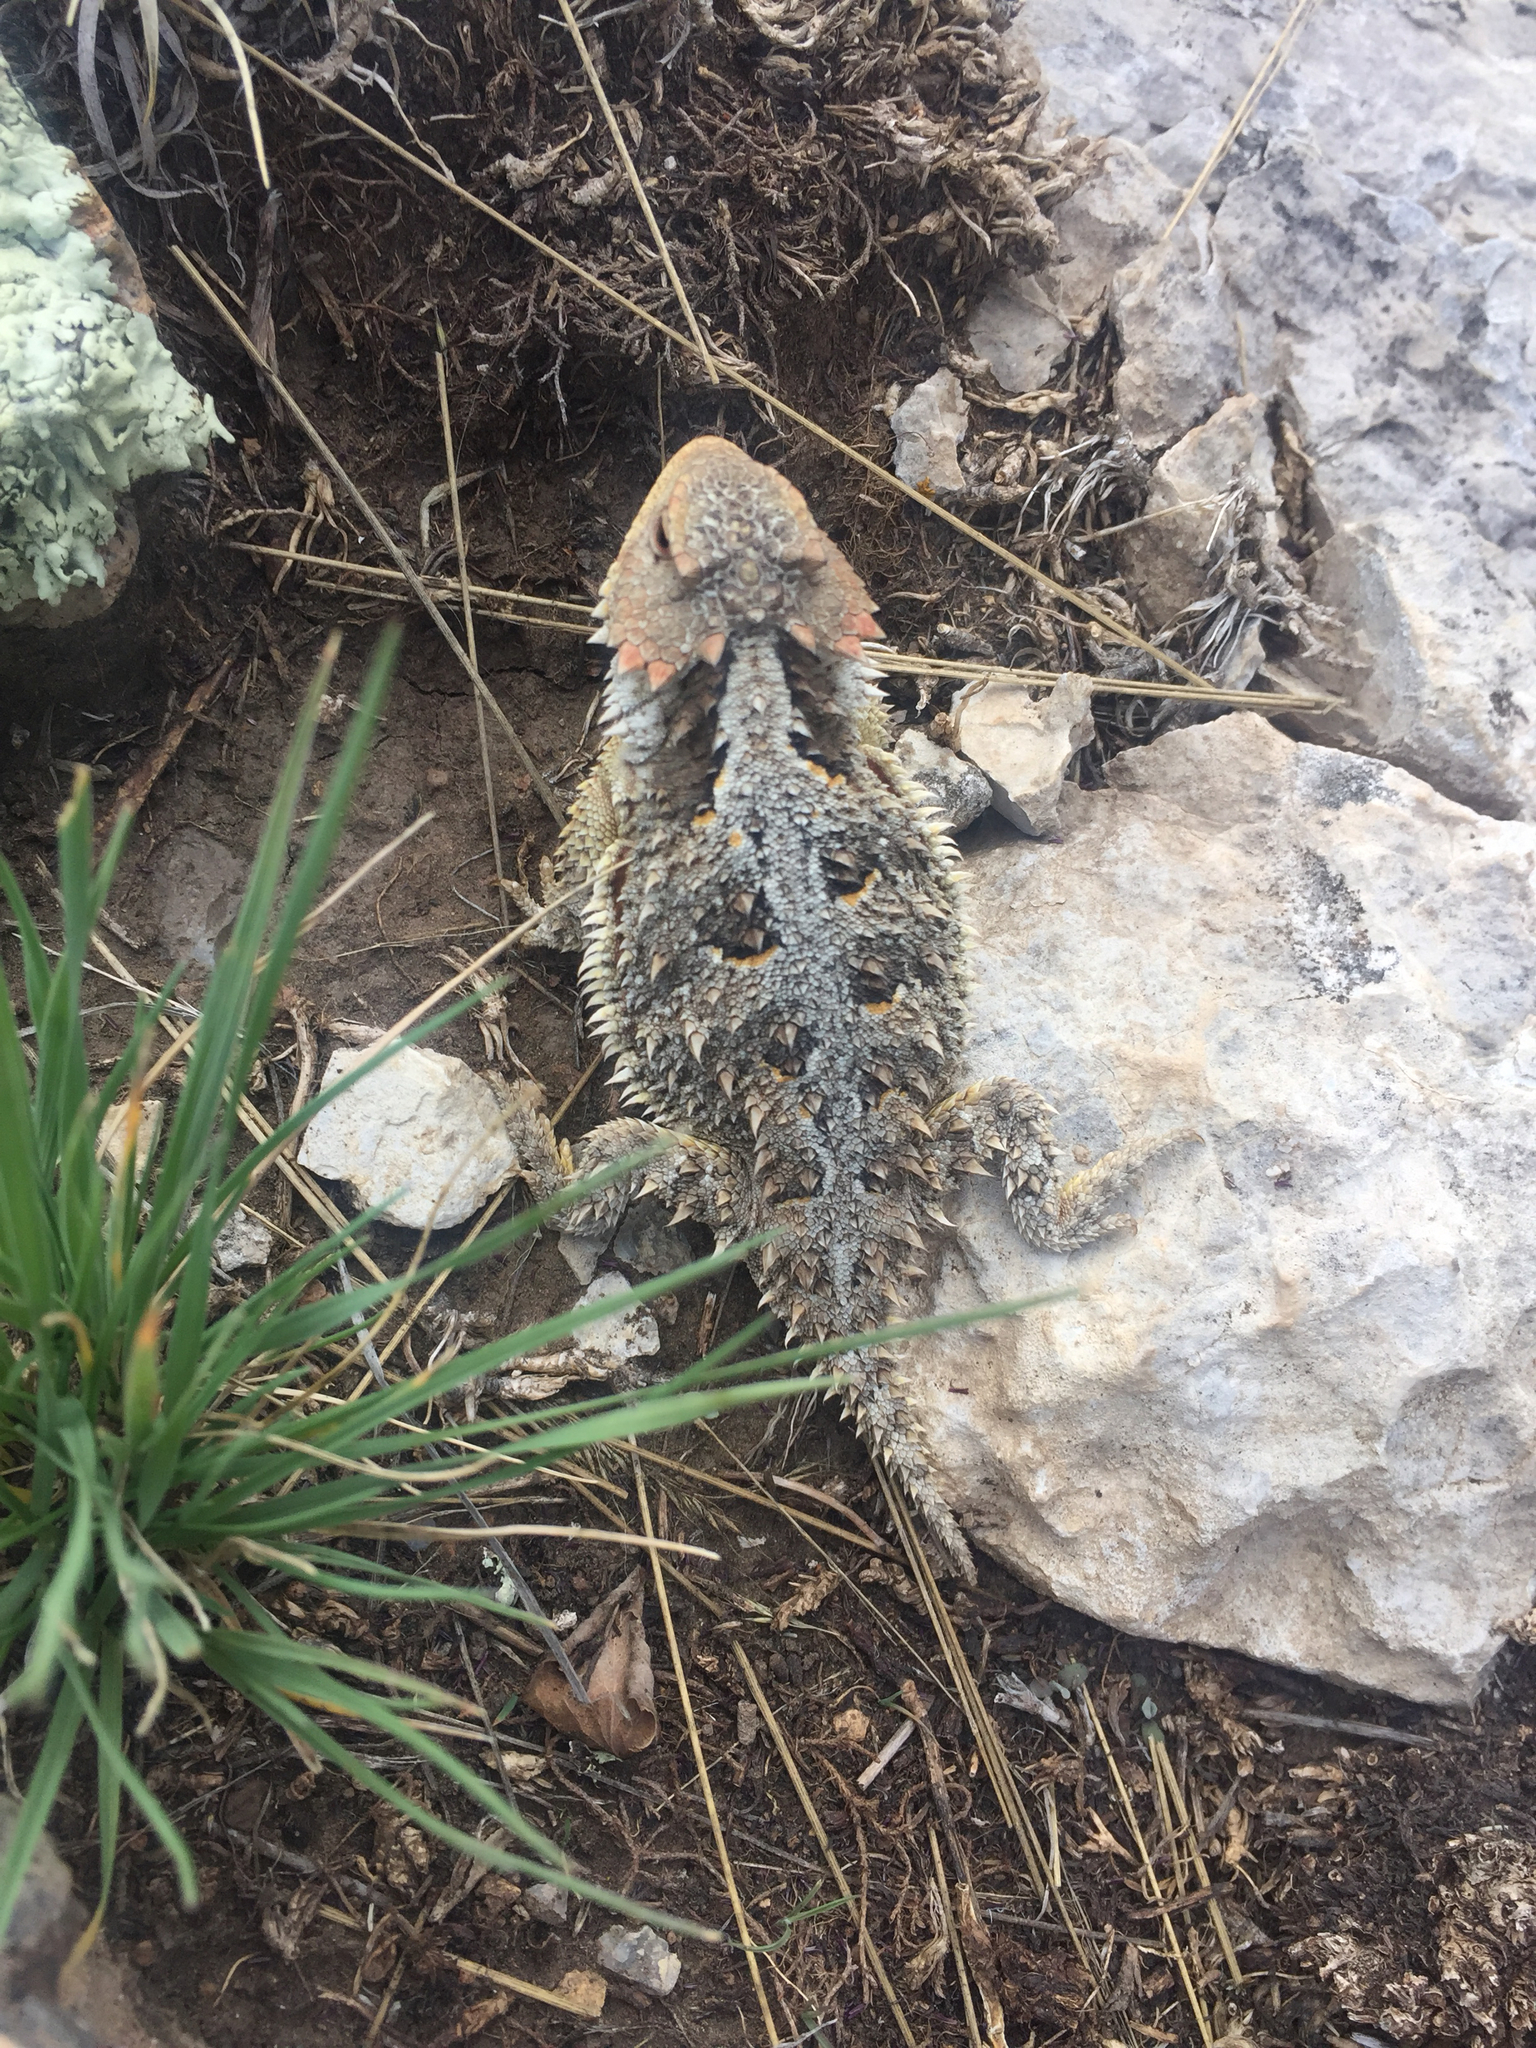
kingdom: Animalia
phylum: Chordata
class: Squamata
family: Phrynosomatidae
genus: Phrynosoma
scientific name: Phrynosoma hernandesi
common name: Greater short-horned lizard
